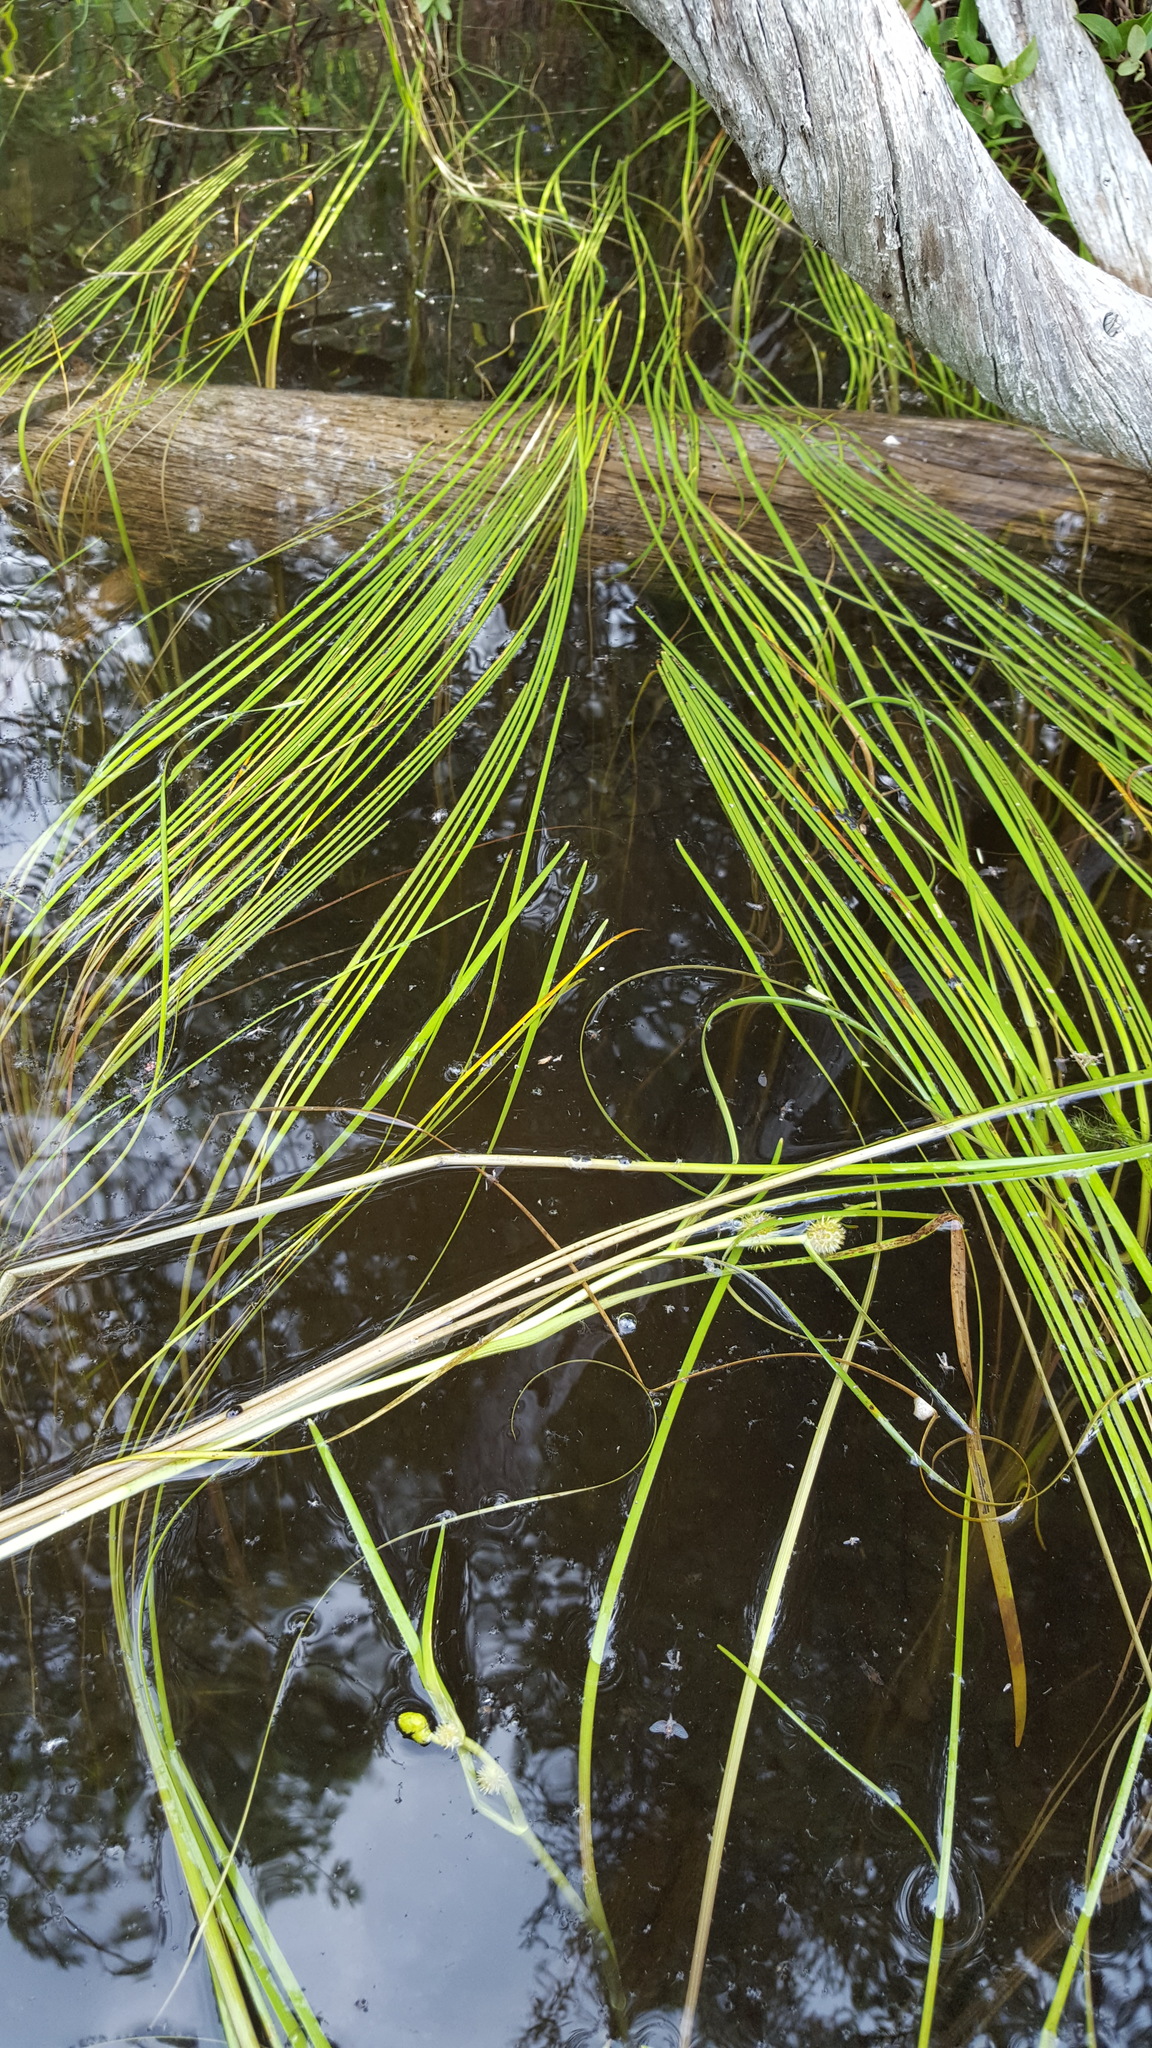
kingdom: Plantae
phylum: Tracheophyta
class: Liliopsida
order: Poales
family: Typhaceae
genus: Sparganium
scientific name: Sparganium fluctuans
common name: Floating burreed
